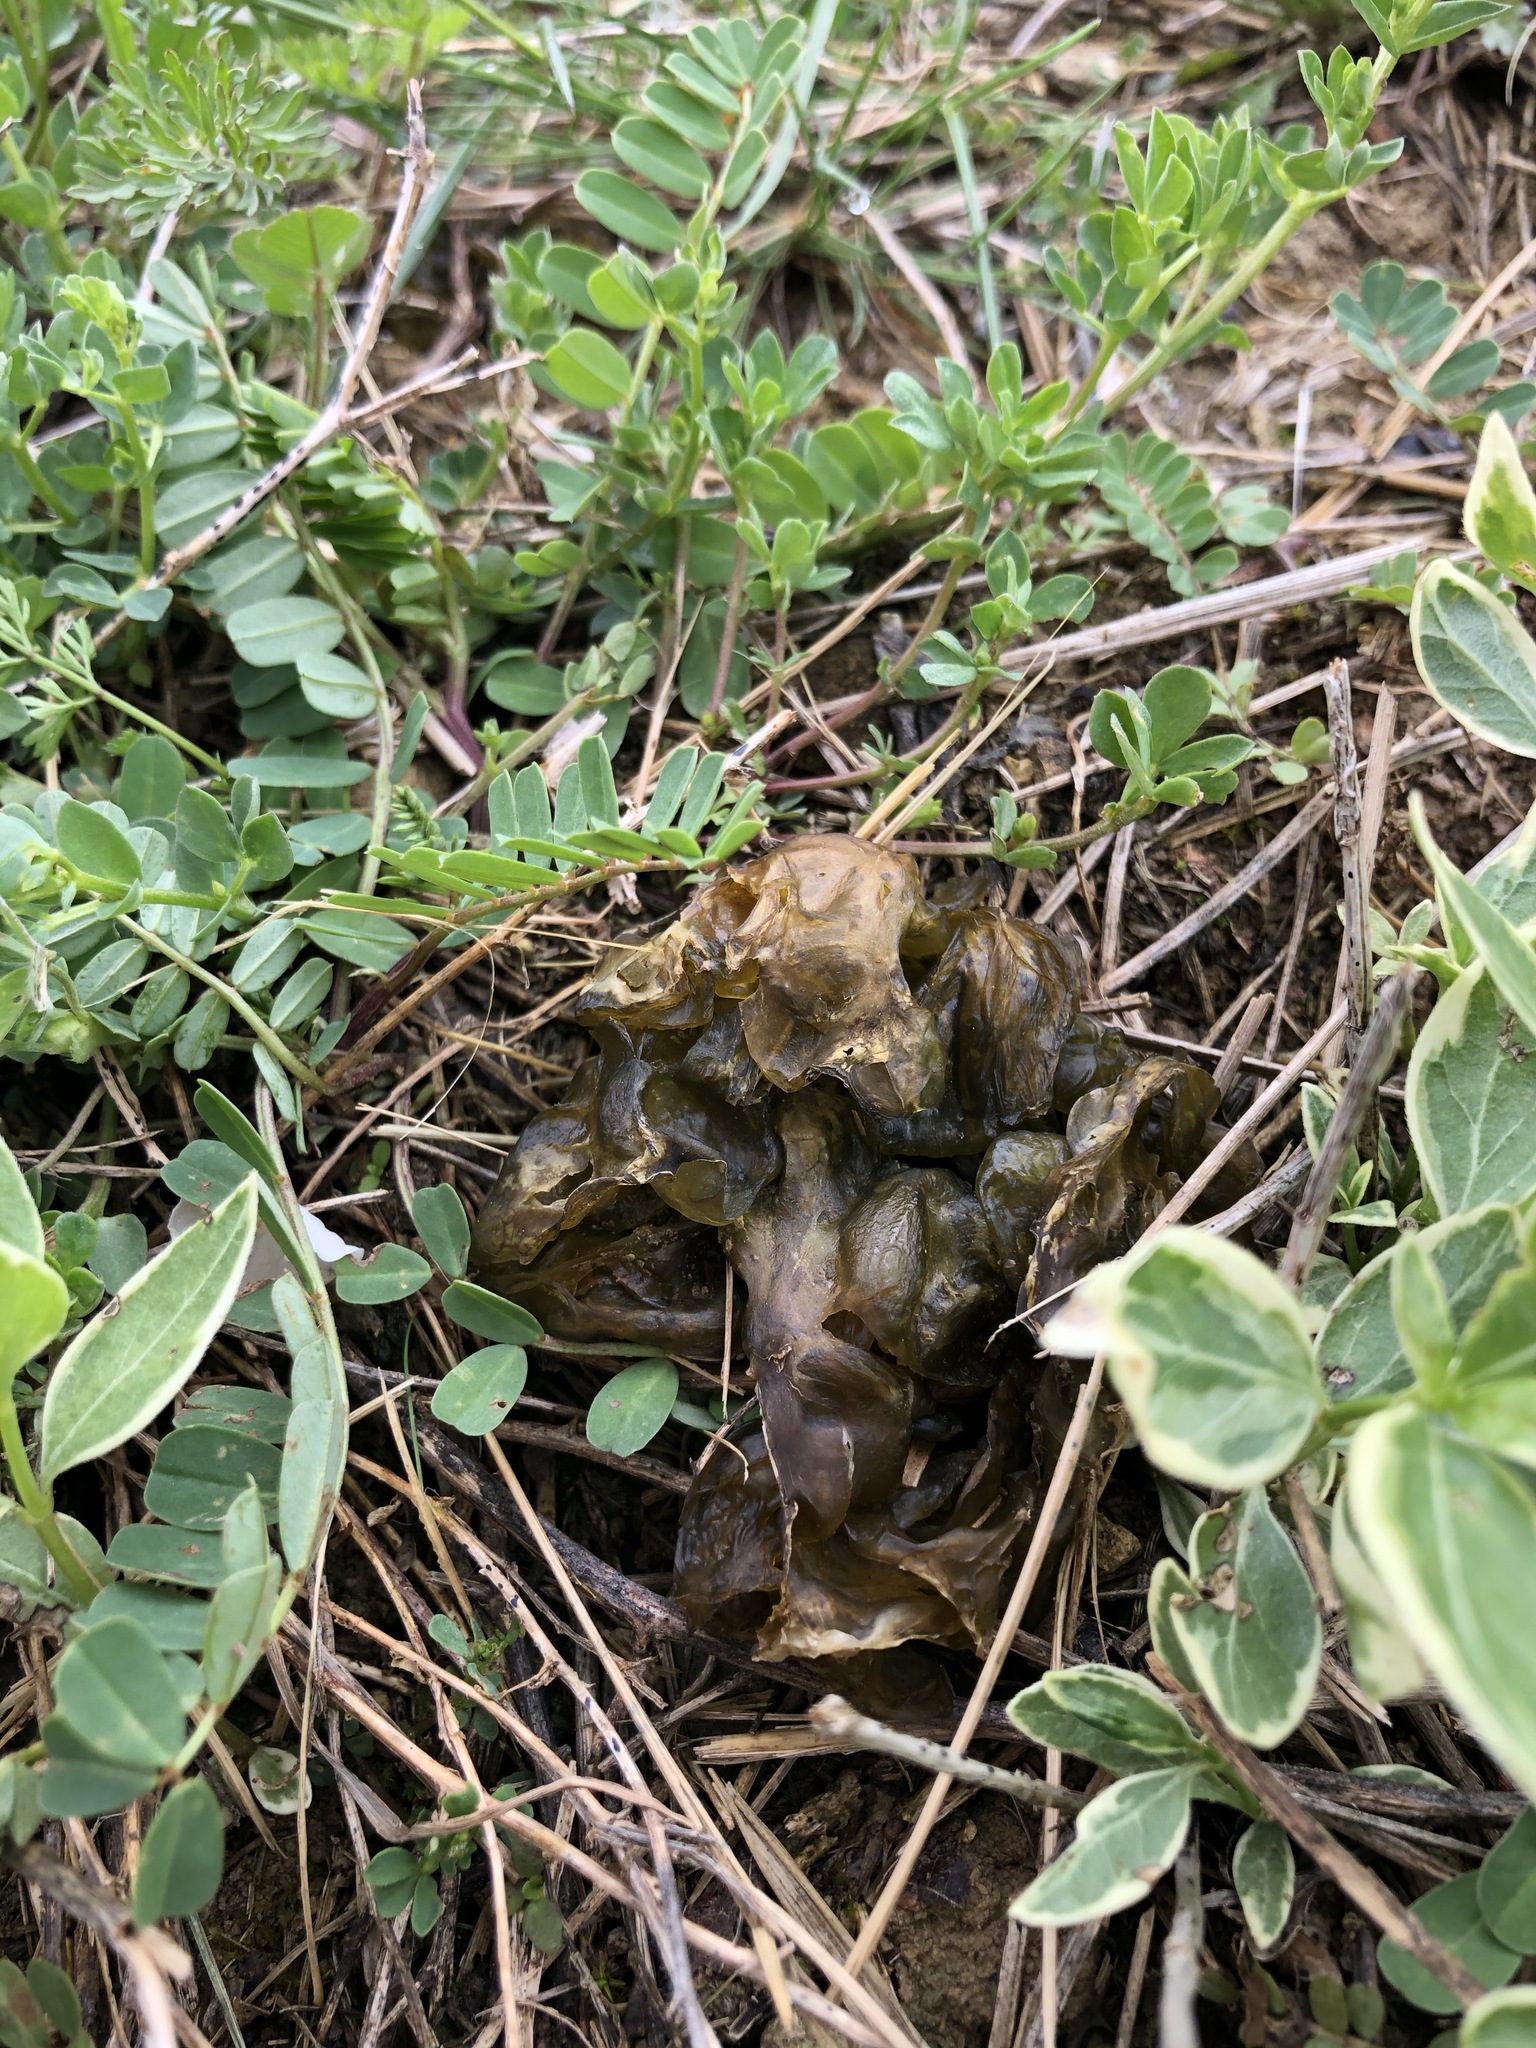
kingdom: Bacteria
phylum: Cyanobacteria
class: Cyanobacteriia
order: Cyanobacteriales
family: Nostocaceae
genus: Nostoc
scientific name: Nostoc commune
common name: Star jelly
